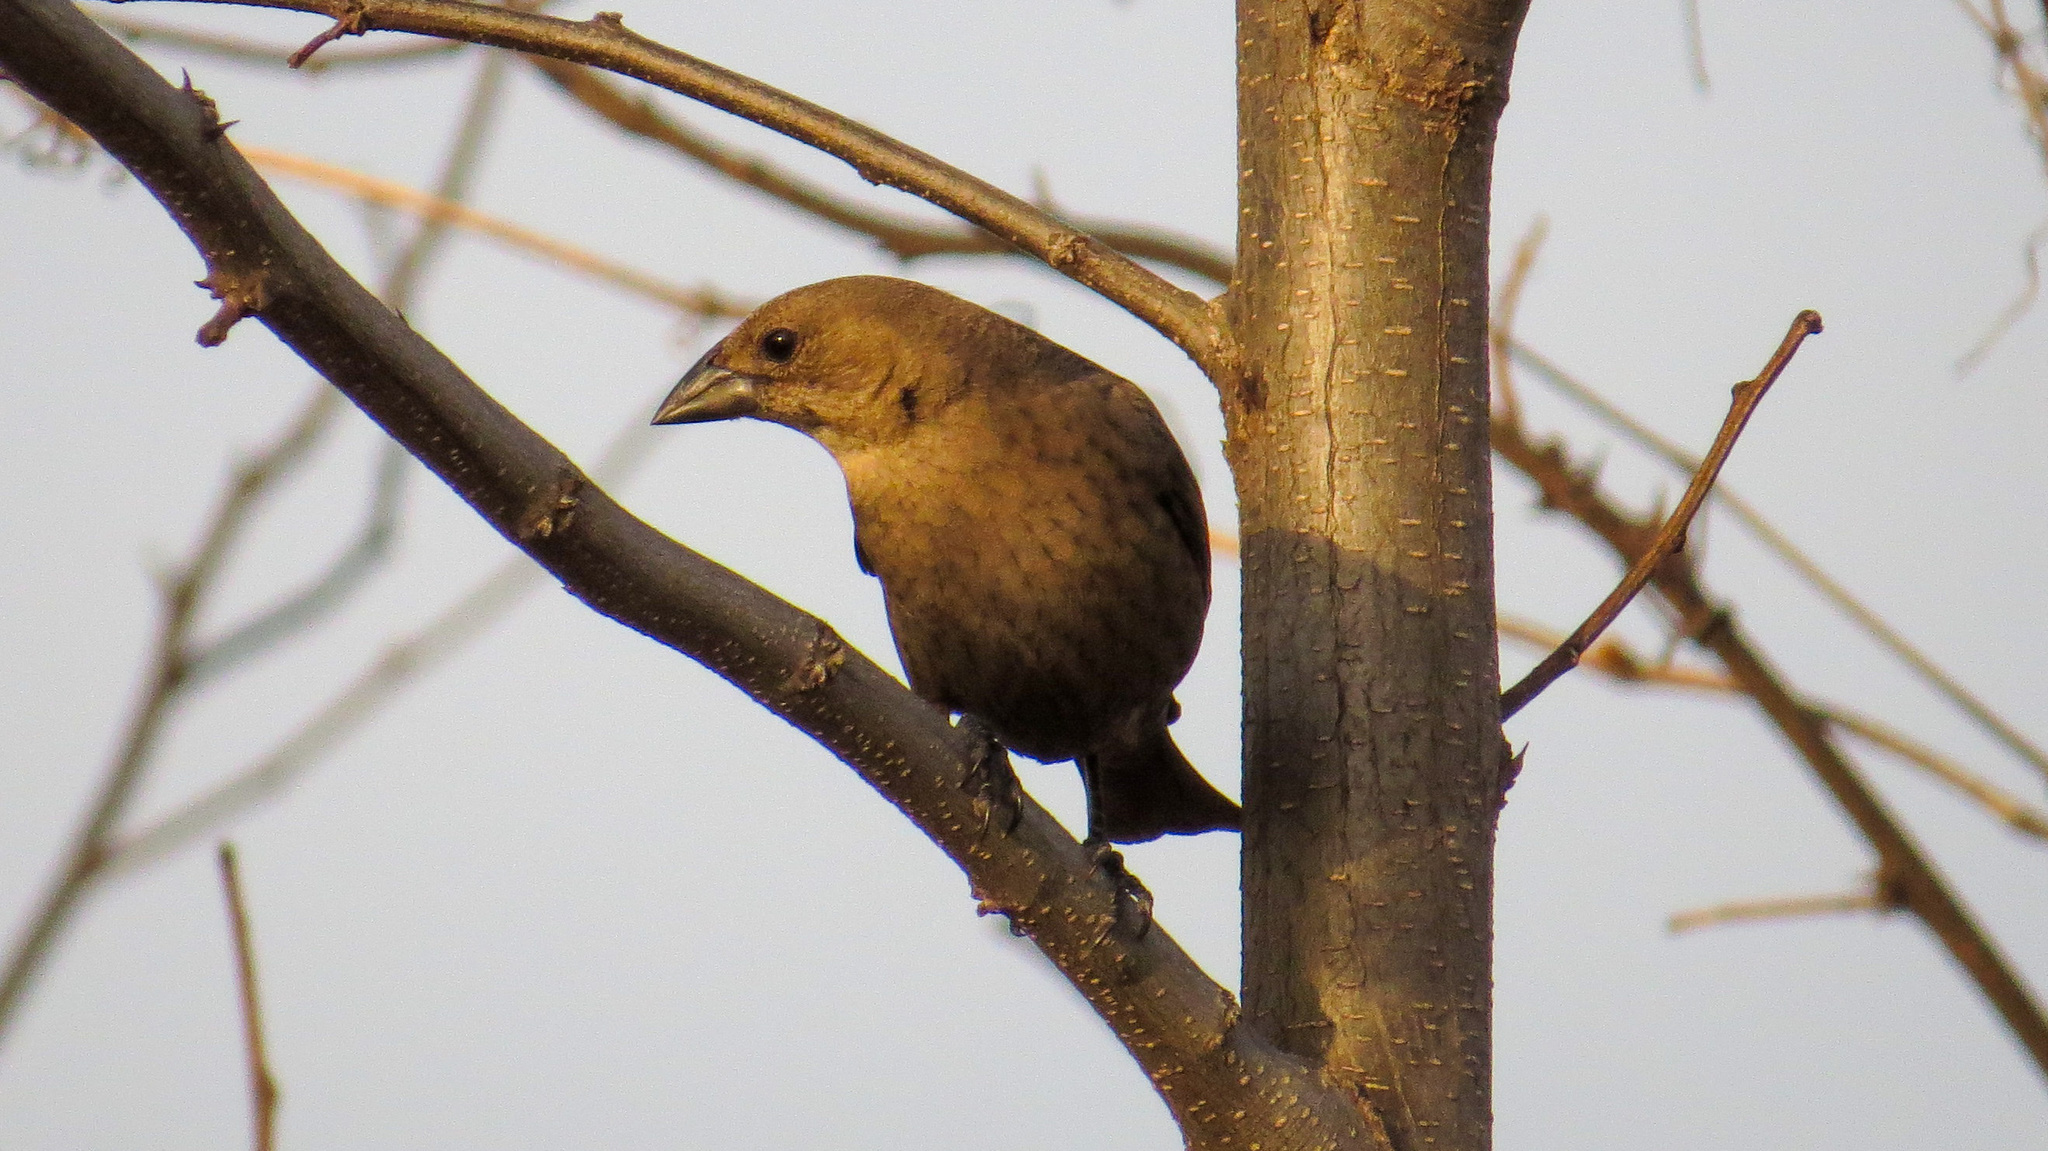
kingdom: Animalia
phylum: Chordata
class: Aves
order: Passeriformes
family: Icteridae
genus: Molothrus
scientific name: Molothrus ater
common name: Brown-headed cowbird
